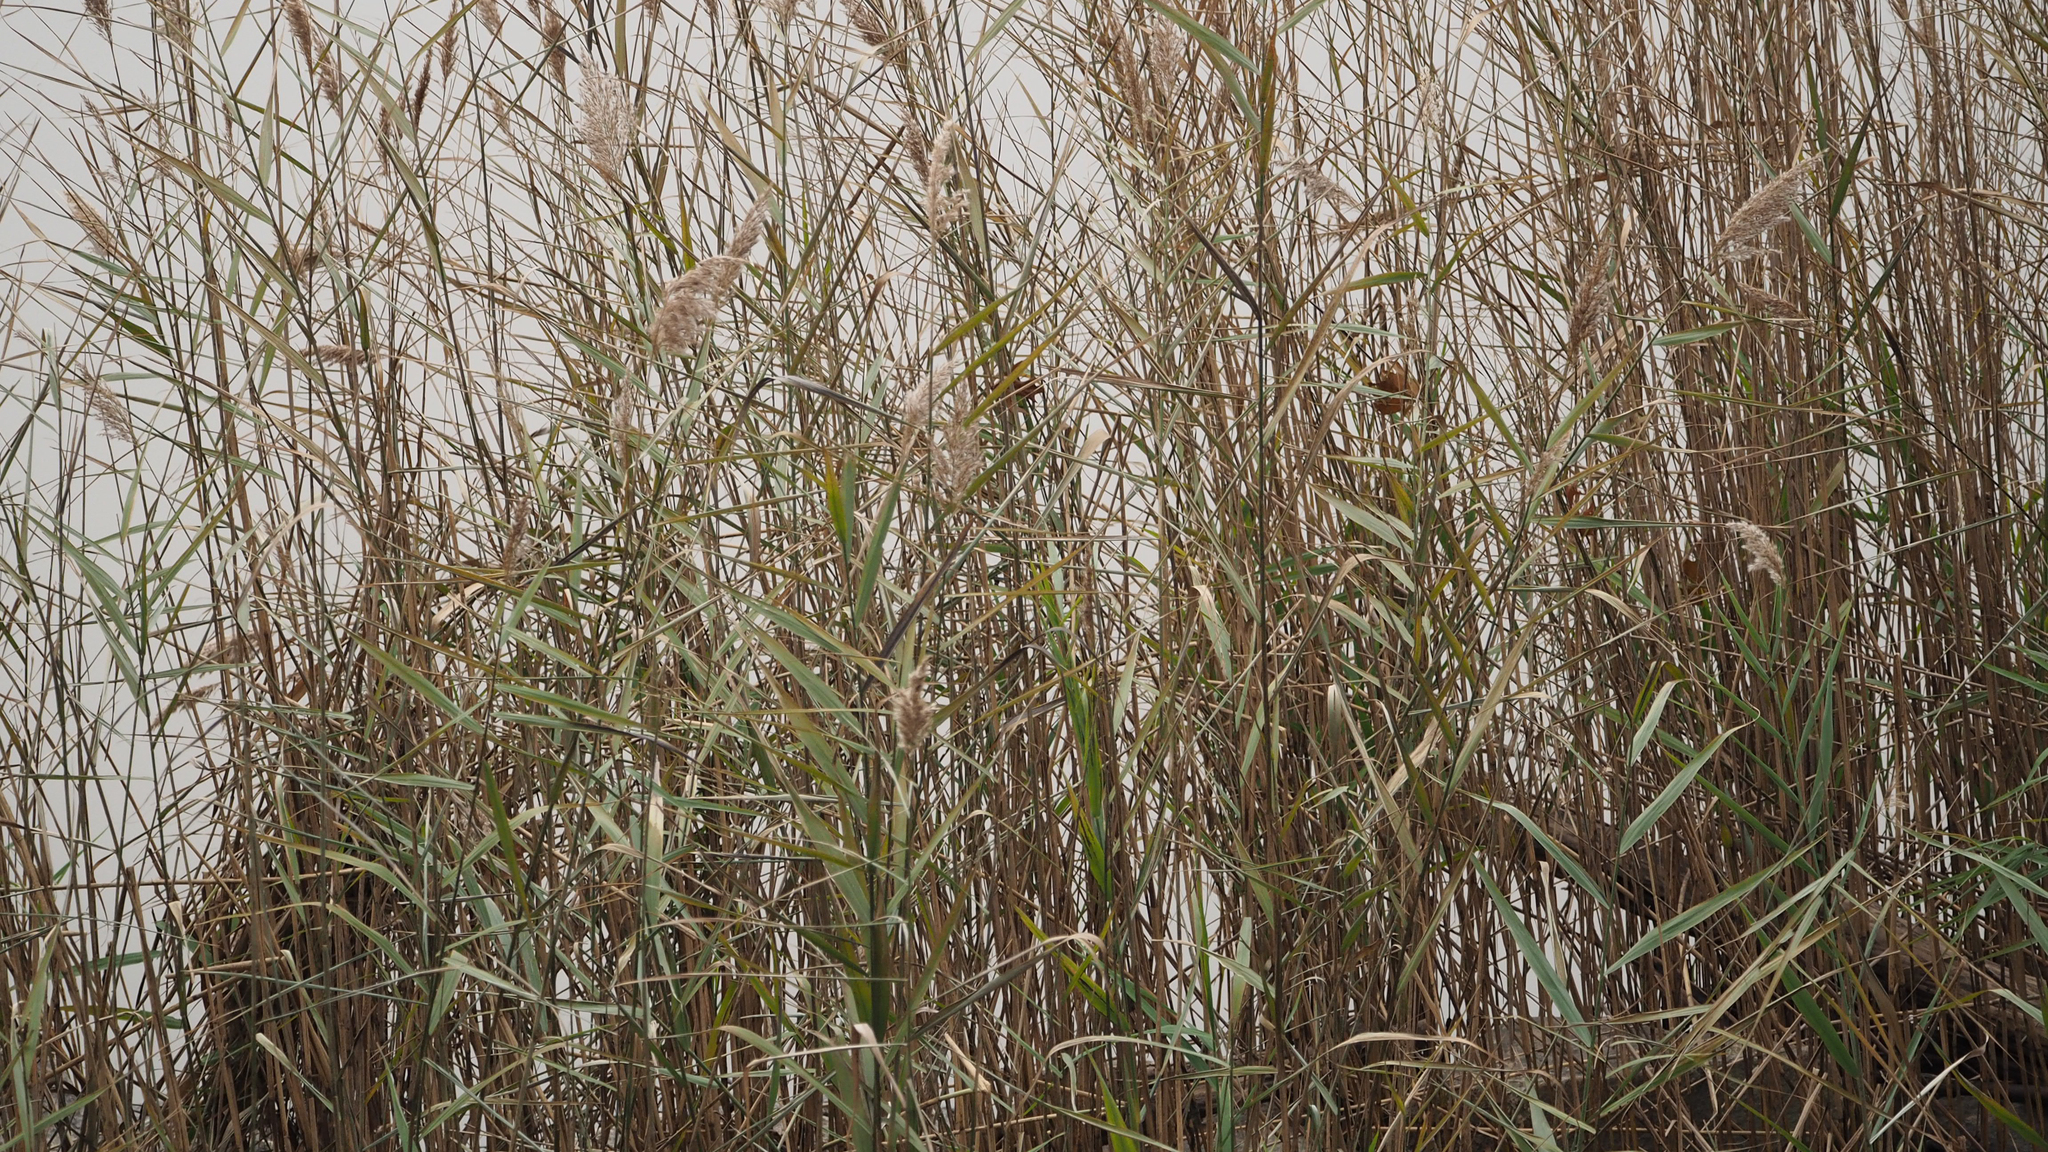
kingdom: Plantae
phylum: Tracheophyta
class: Liliopsida
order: Poales
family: Poaceae
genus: Phragmites
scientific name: Phragmites australis
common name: Common reed
